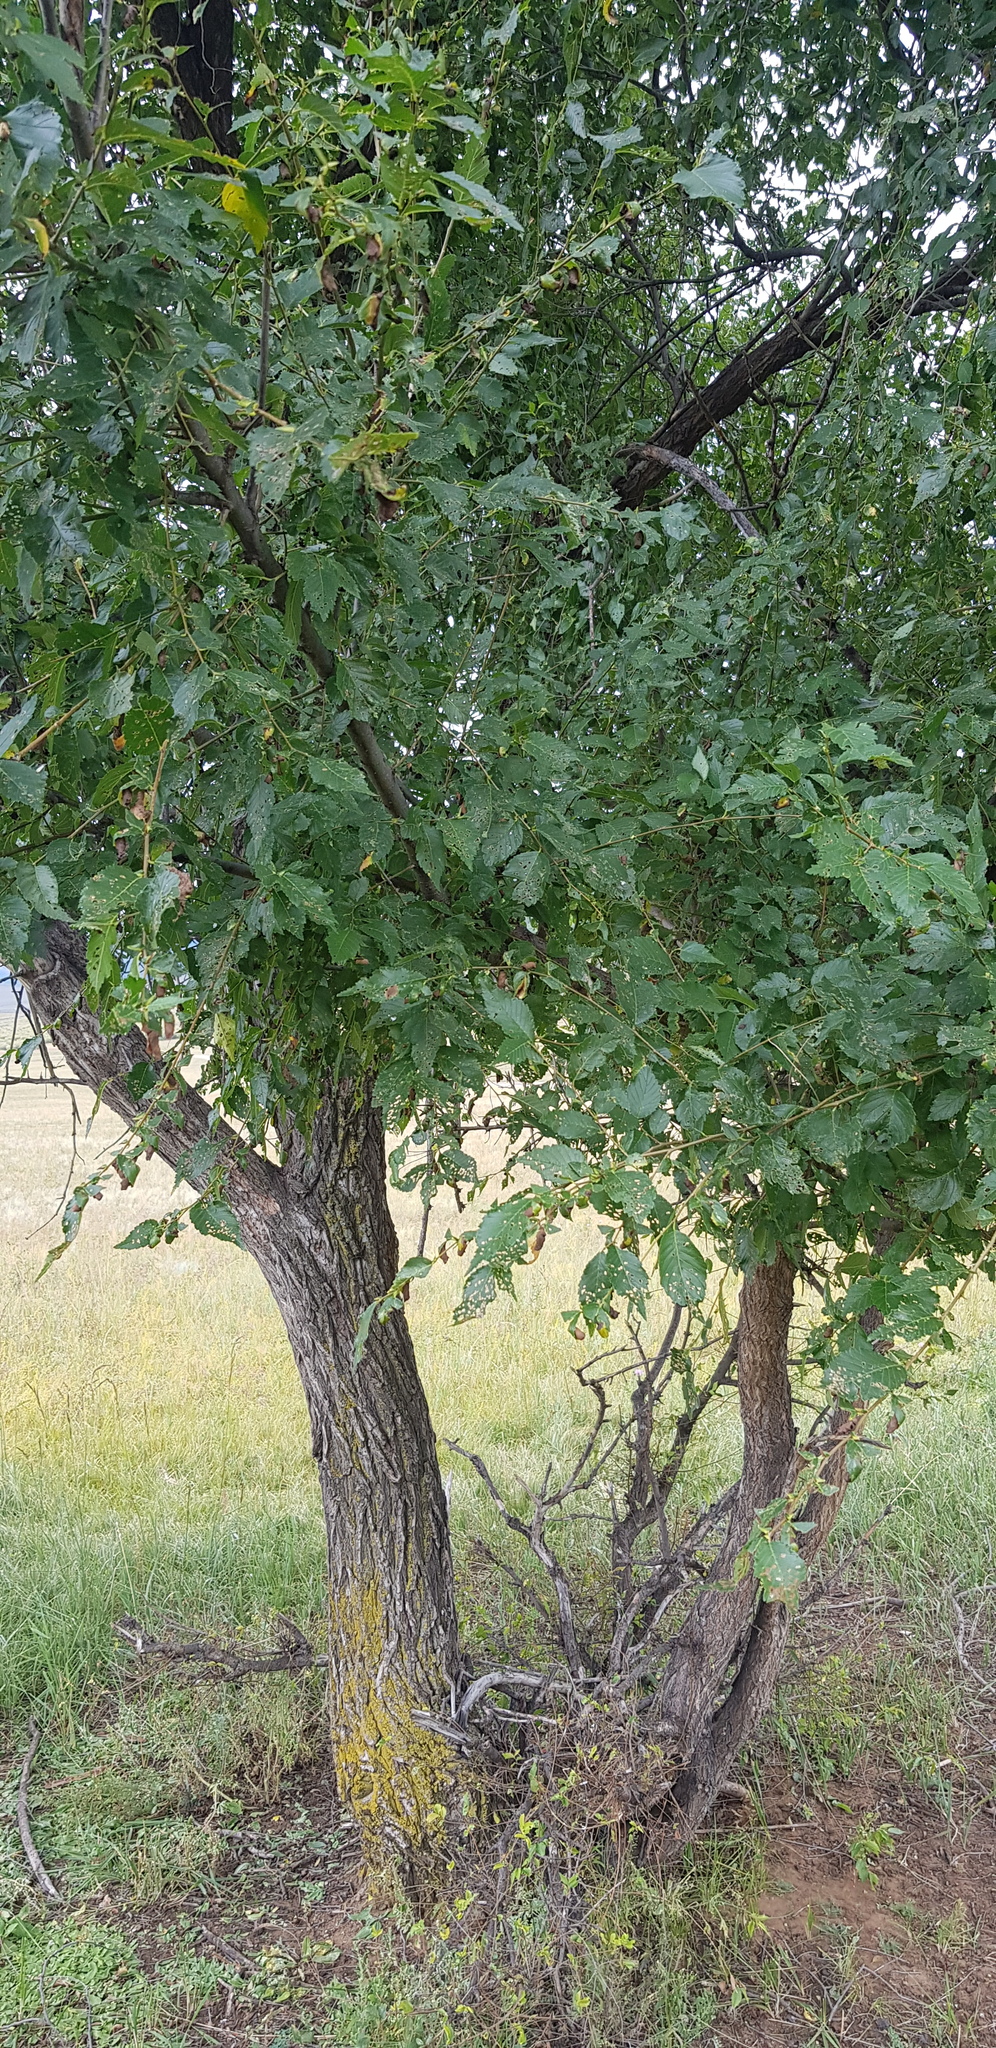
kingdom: Plantae
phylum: Tracheophyta
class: Magnoliopsida
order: Rosales
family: Ulmaceae
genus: Ulmus
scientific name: Ulmus pumila
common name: Siberian elm
